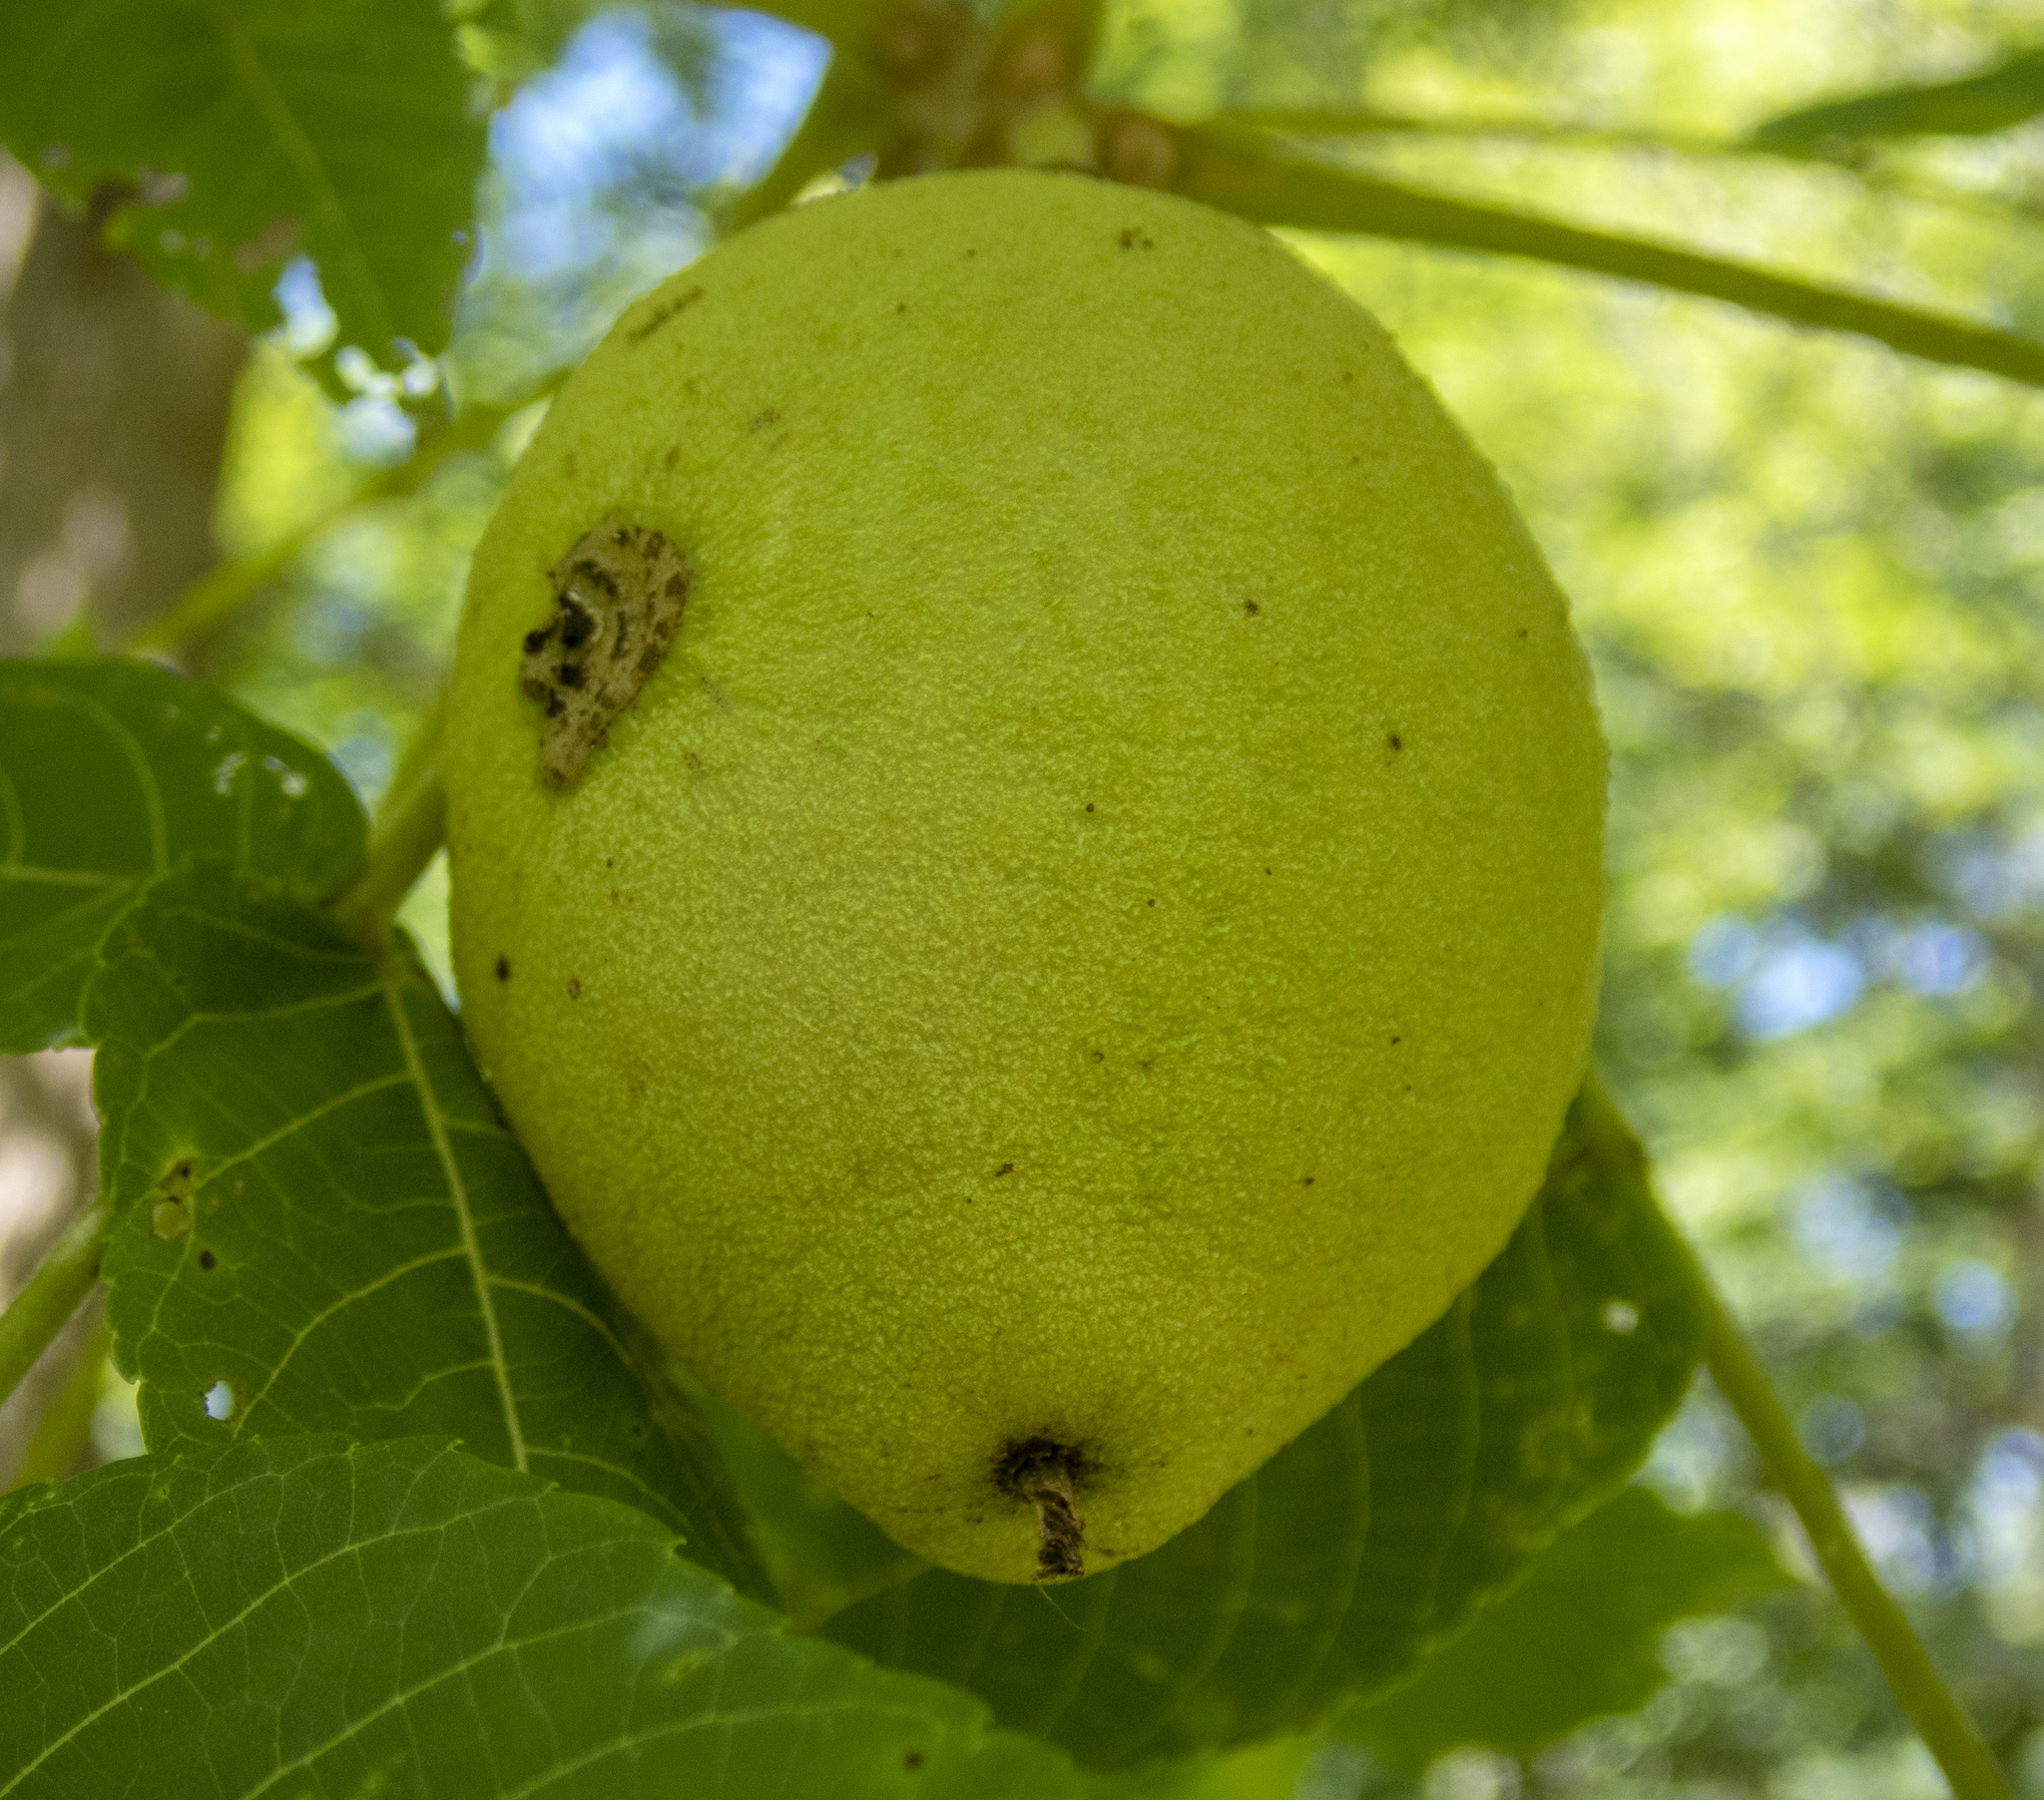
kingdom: Plantae
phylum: Tracheophyta
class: Magnoliopsida
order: Fagales
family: Juglandaceae
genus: Juglans
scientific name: Juglans nigra
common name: Black walnut
